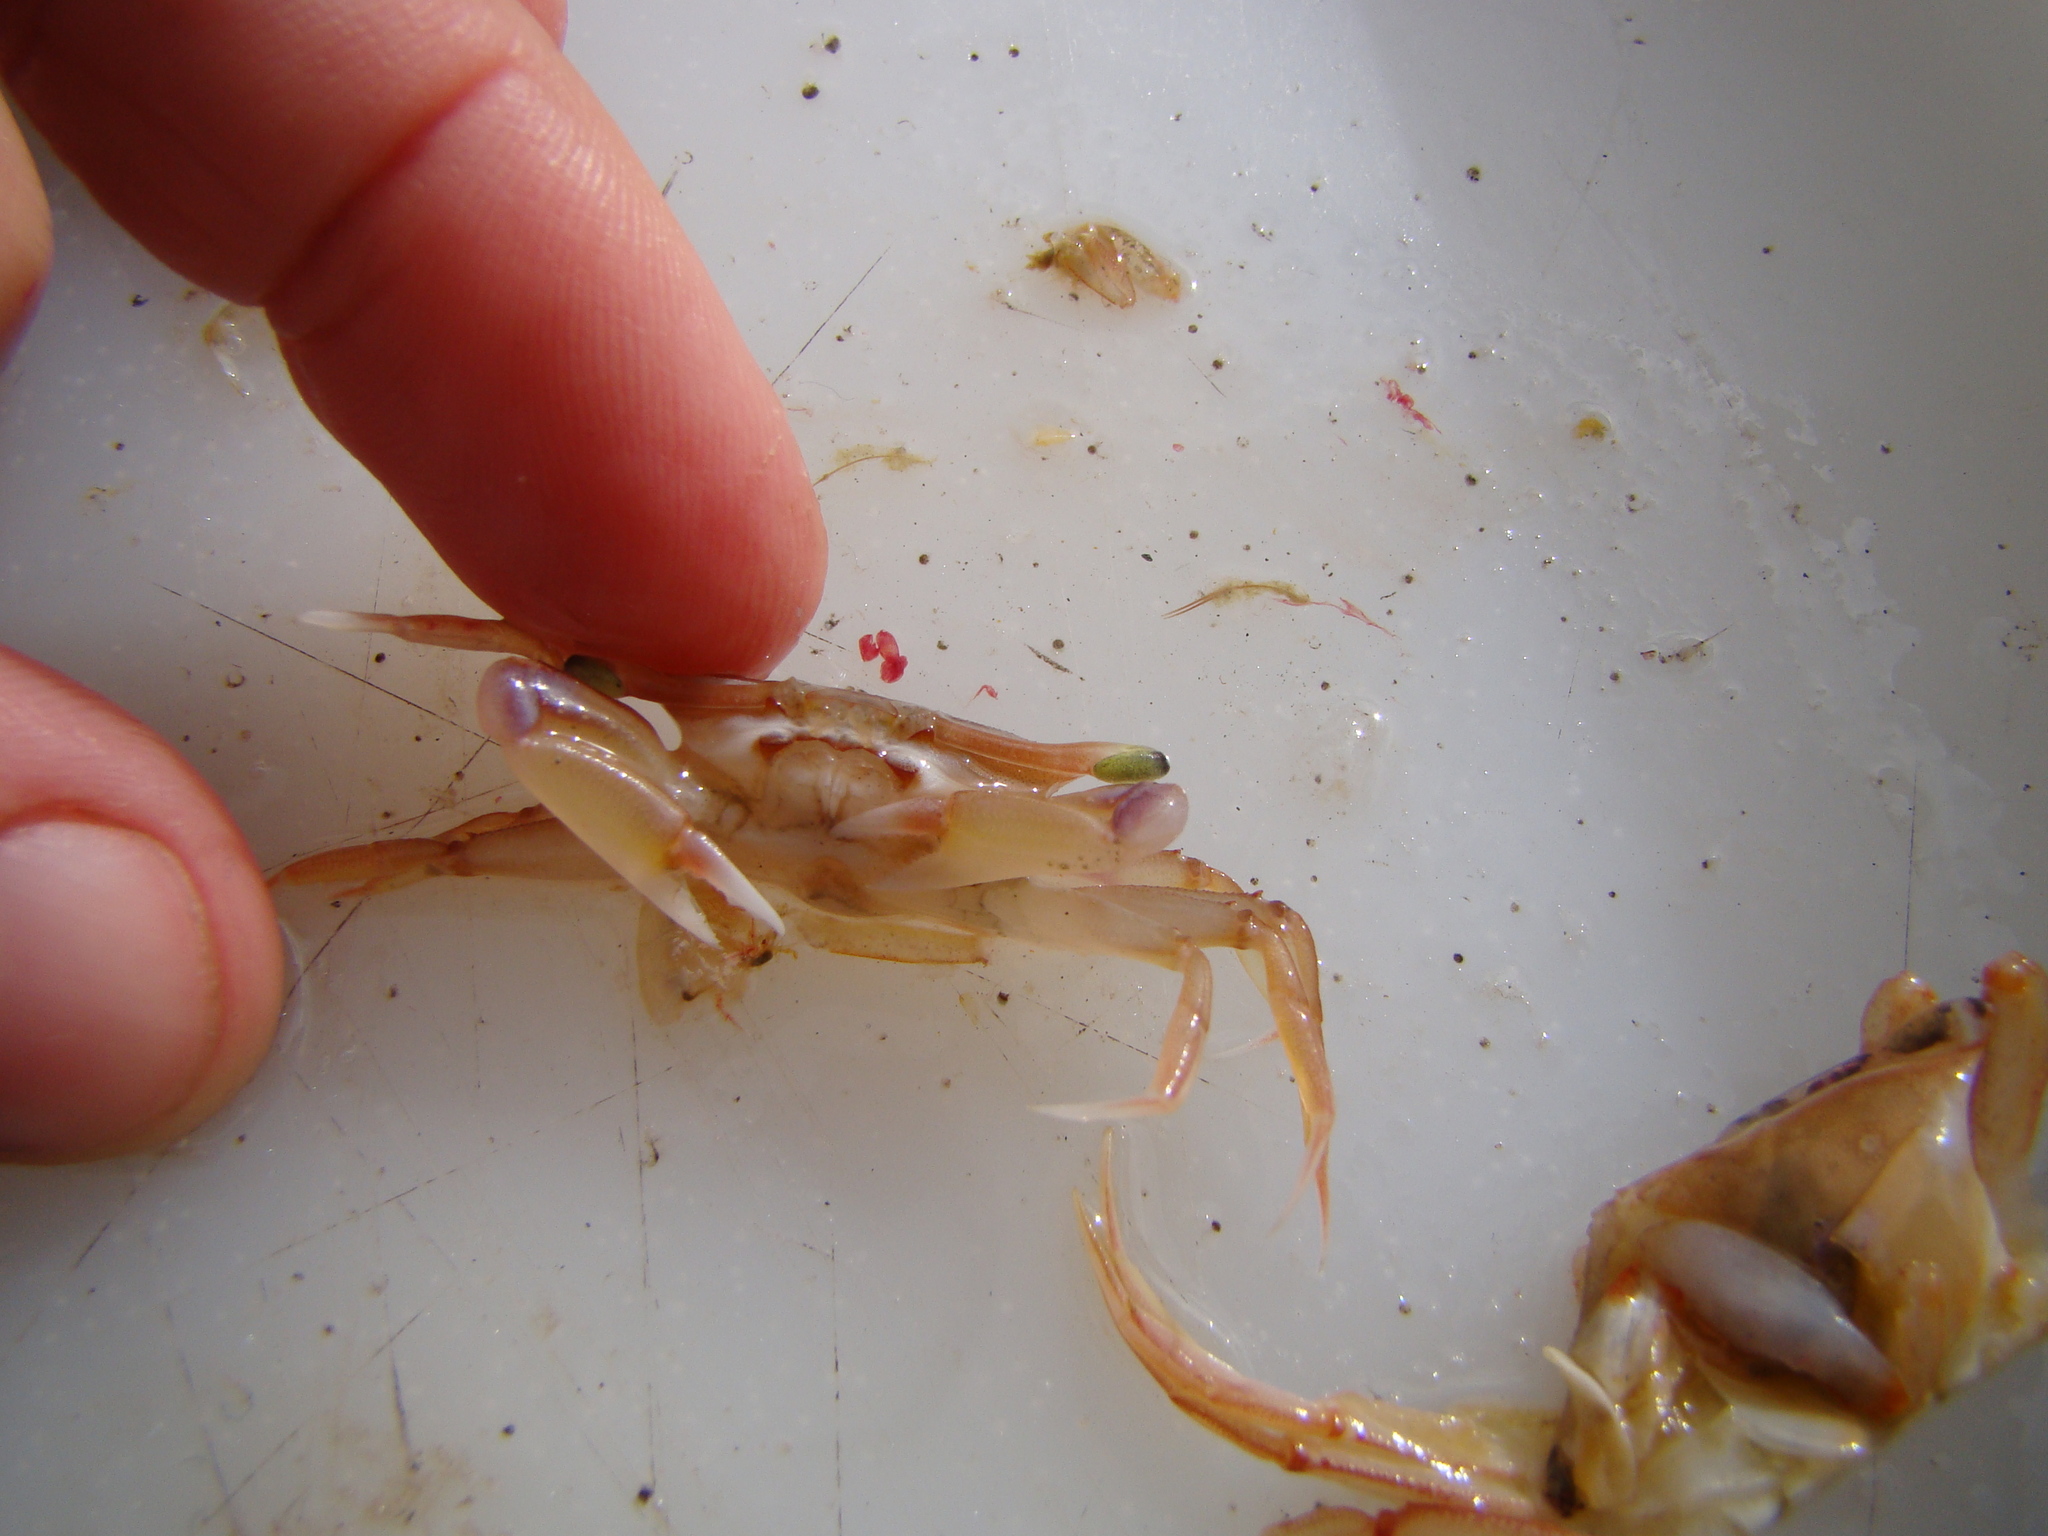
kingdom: Animalia
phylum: Arthropoda
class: Malacostraca
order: Decapoda
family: Goneplacidae
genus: Neommatocarcinus
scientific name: Neommatocarcinus huttoni
